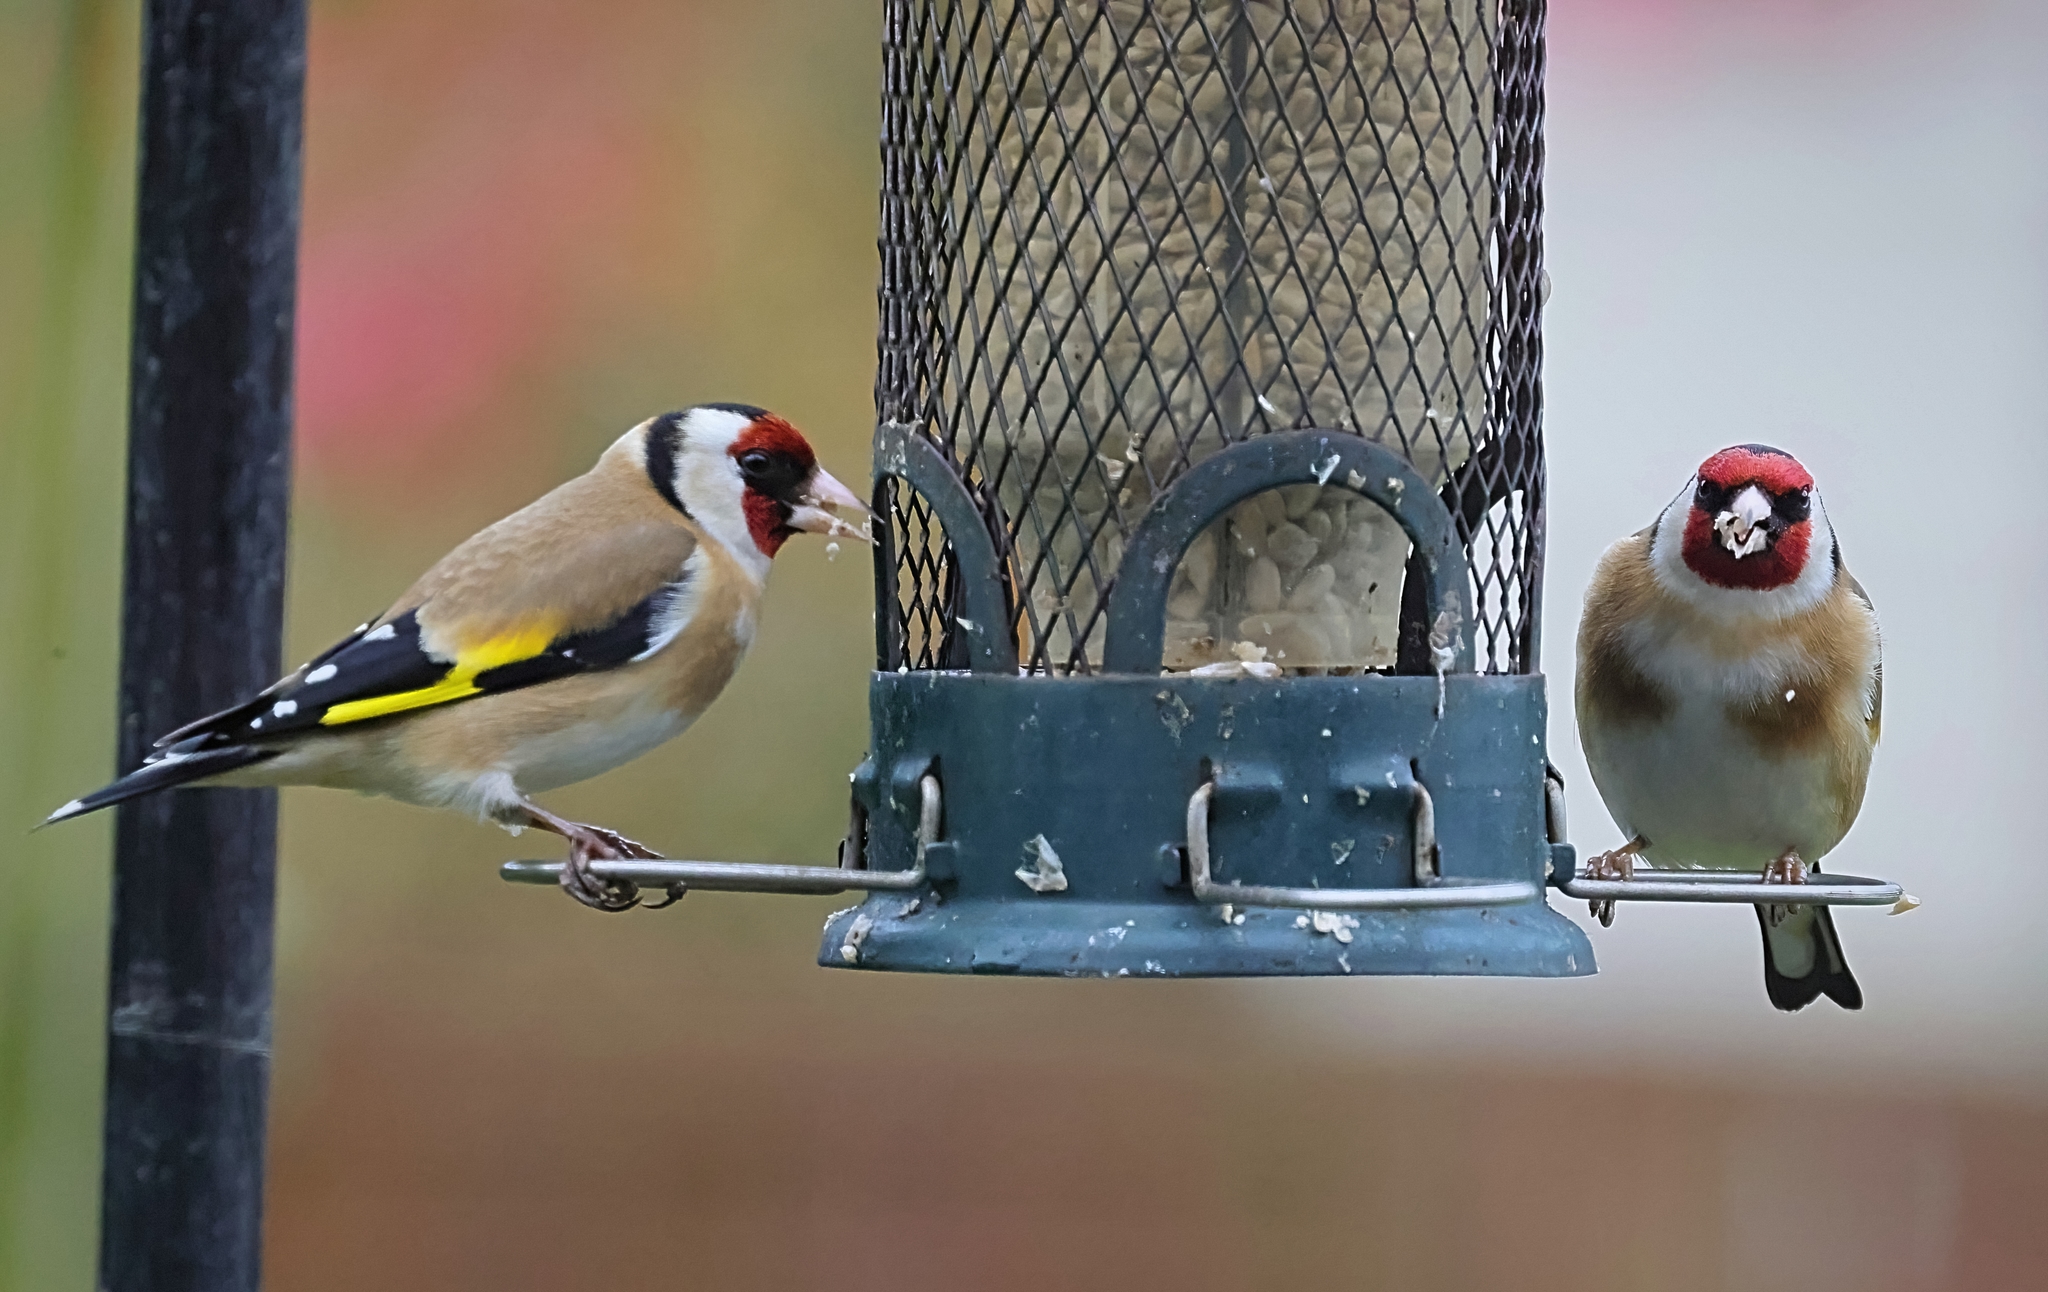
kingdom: Animalia
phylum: Chordata
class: Aves
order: Passeriformes
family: Fringillidae
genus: Carduelis
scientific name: Carduelis carduelis
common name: European goldfinch
